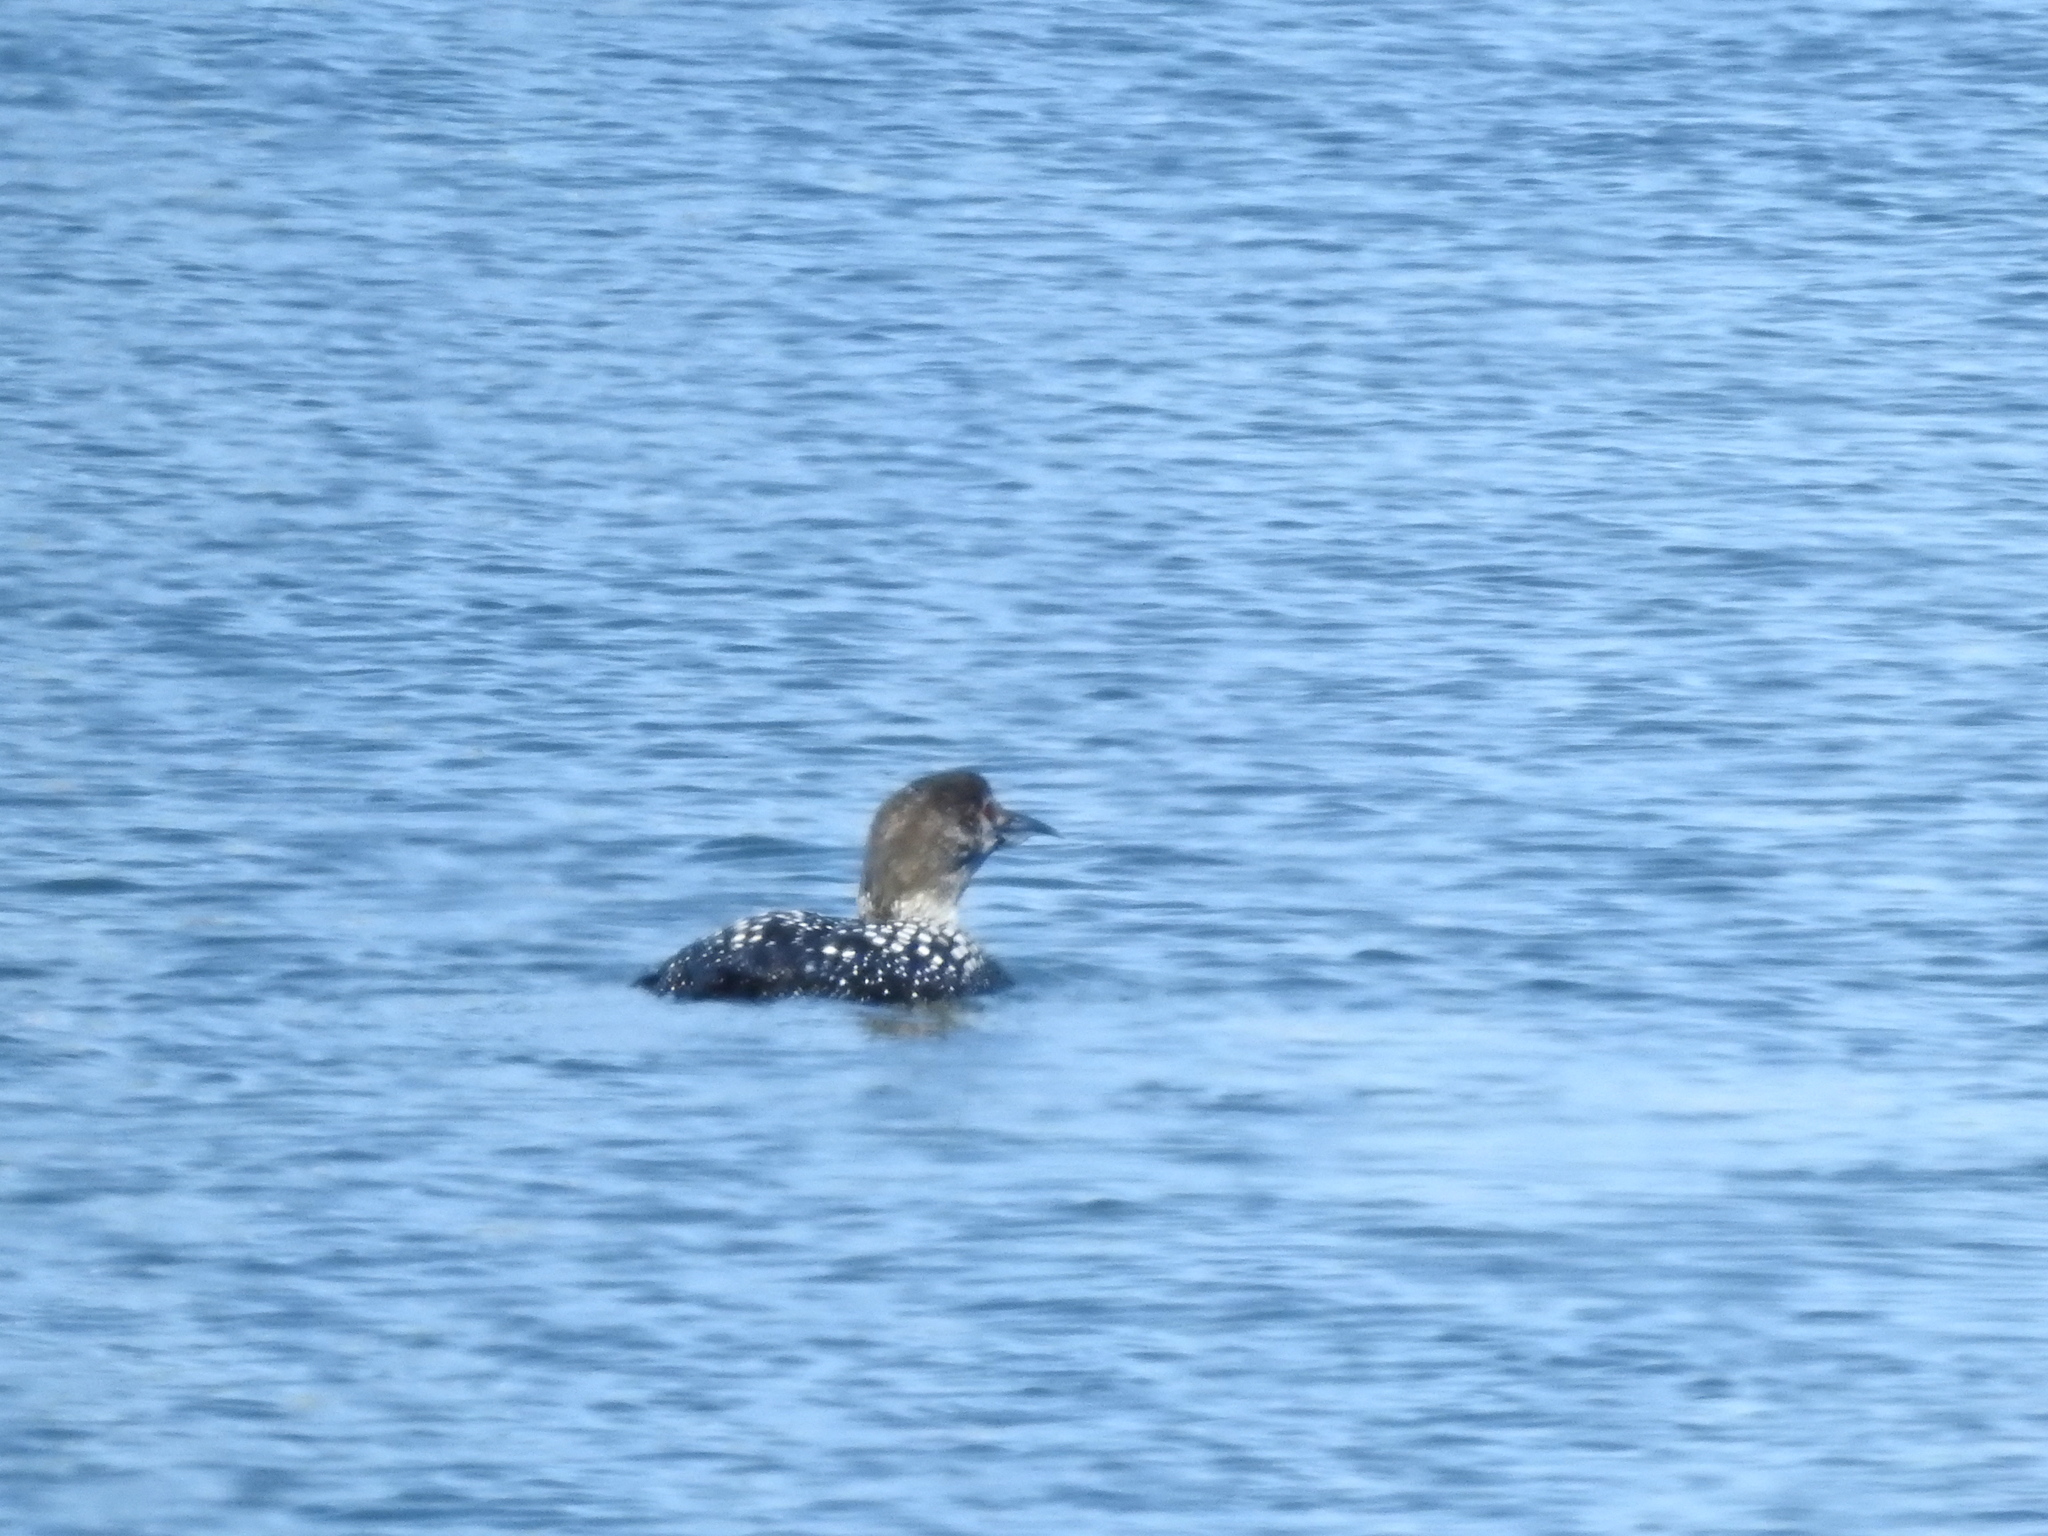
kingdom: Animalia
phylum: Chordata
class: Aves
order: Gaviiformes
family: Gaviidae
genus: Gavia
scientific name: Gavia immer
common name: Common loon
